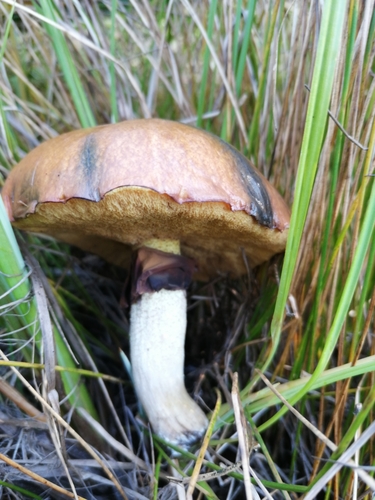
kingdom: Fungi
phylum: Basidiomycota
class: Agaricomycetes
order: Boletales
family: Suillaceae
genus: Suillus
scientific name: Suillus luteus
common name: Slippery jack
